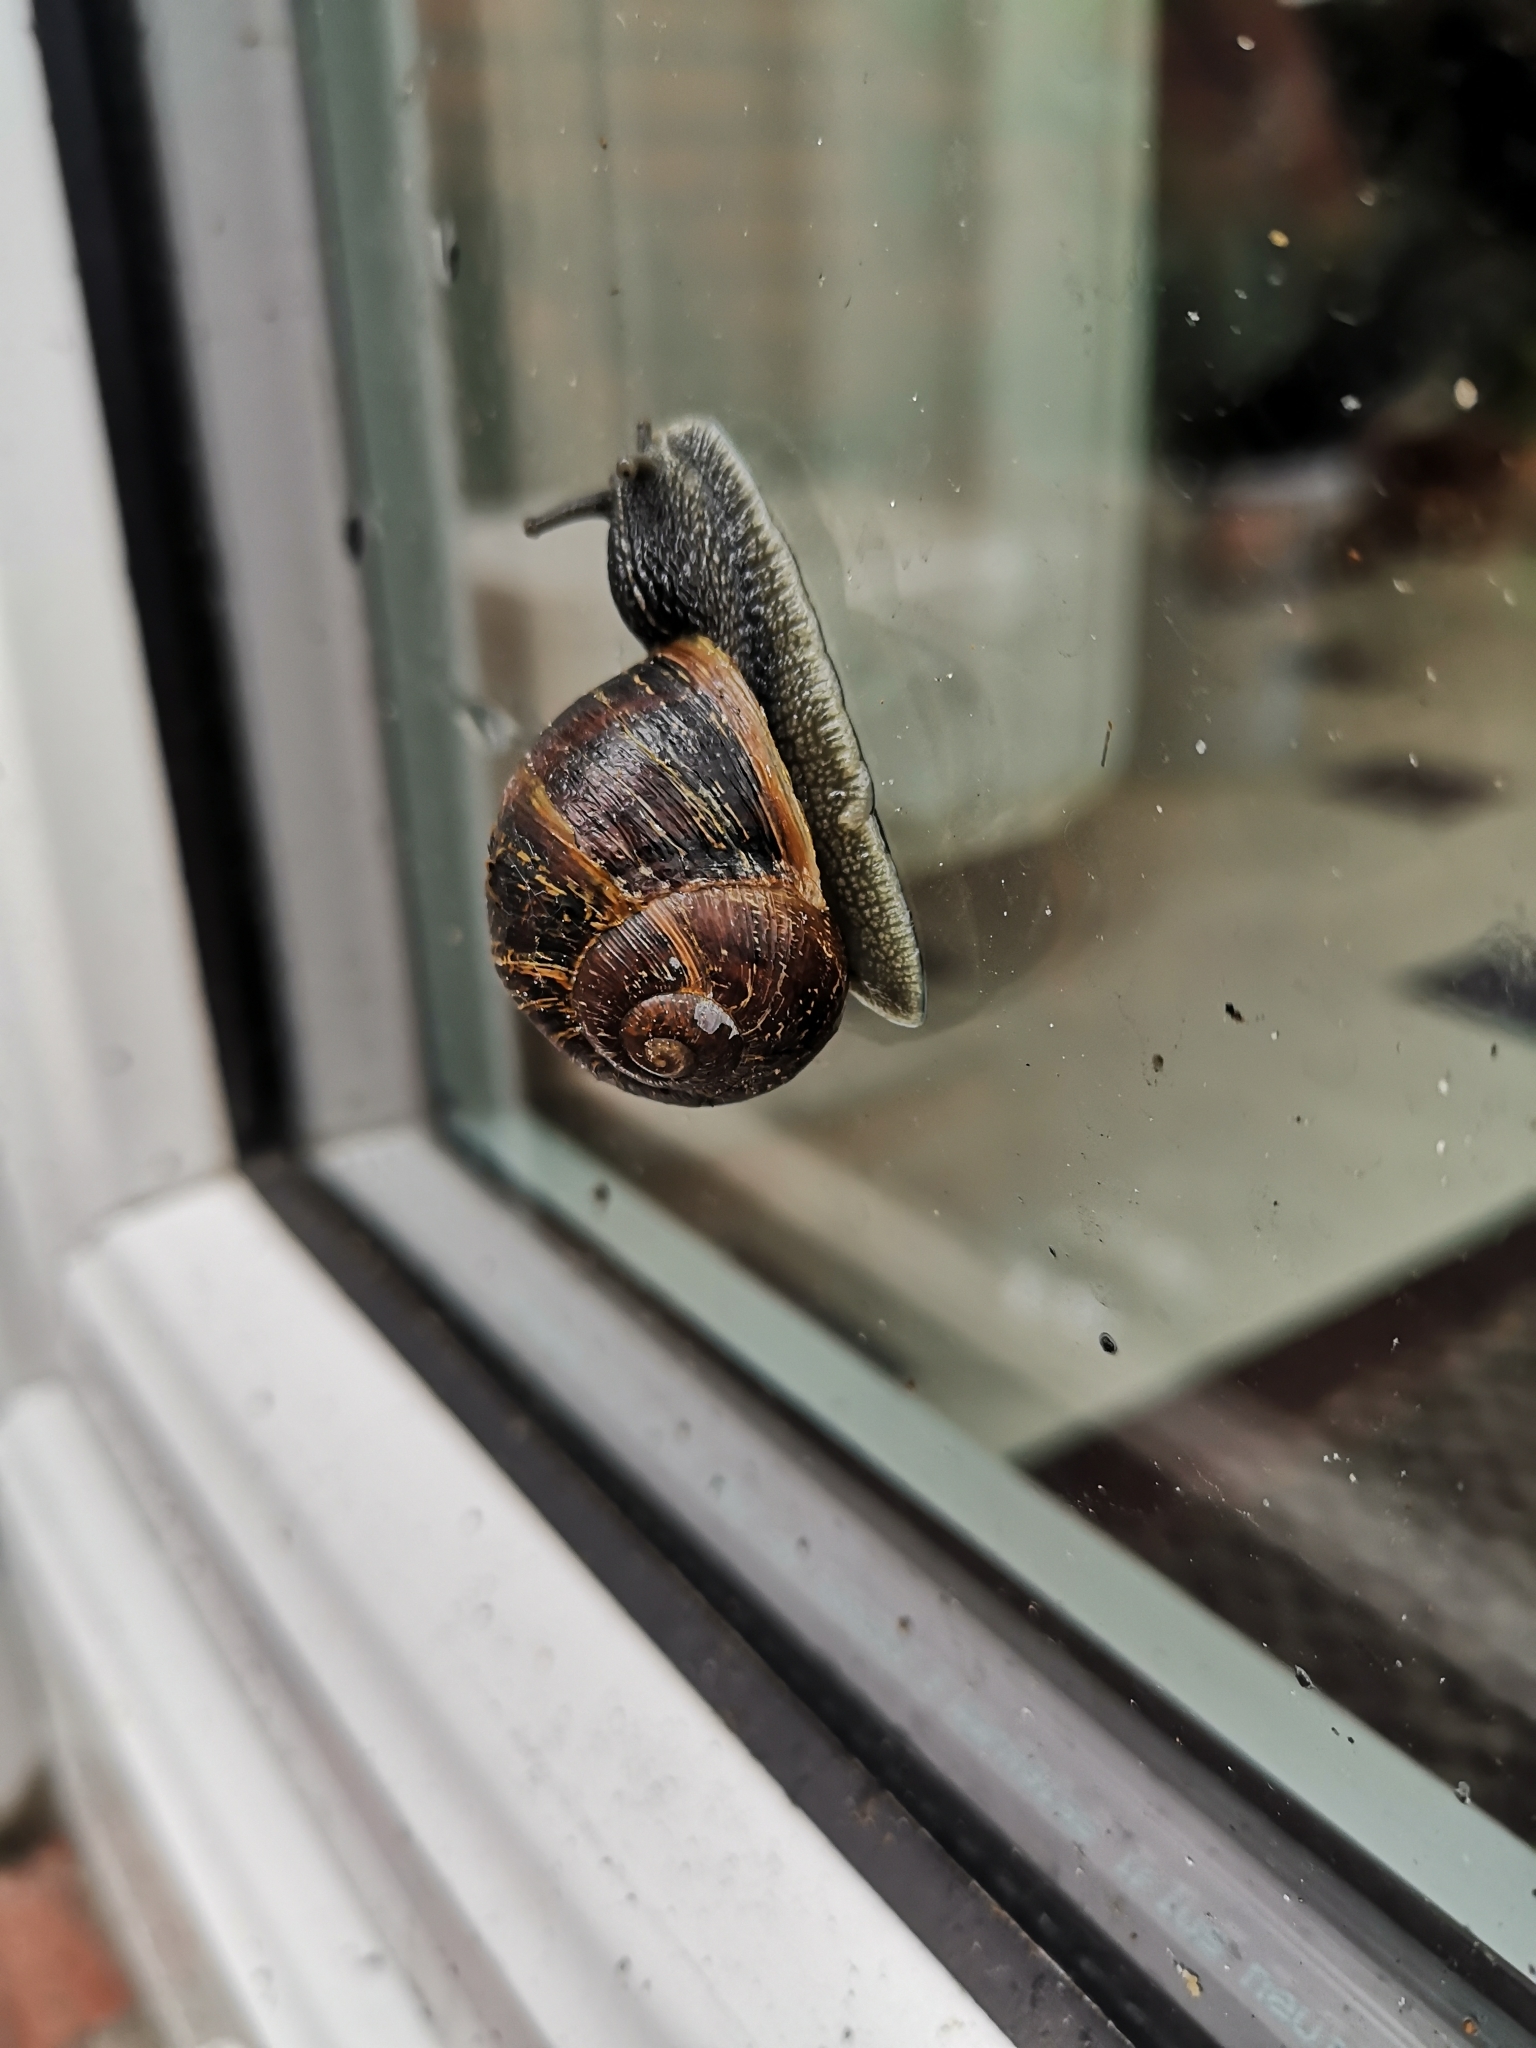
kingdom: Animalia
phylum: Mollusca
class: Gastropoda
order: Stylommatophora
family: Helicidae
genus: Cornu
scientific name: Cornu aspersum
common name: Brown garden snail
